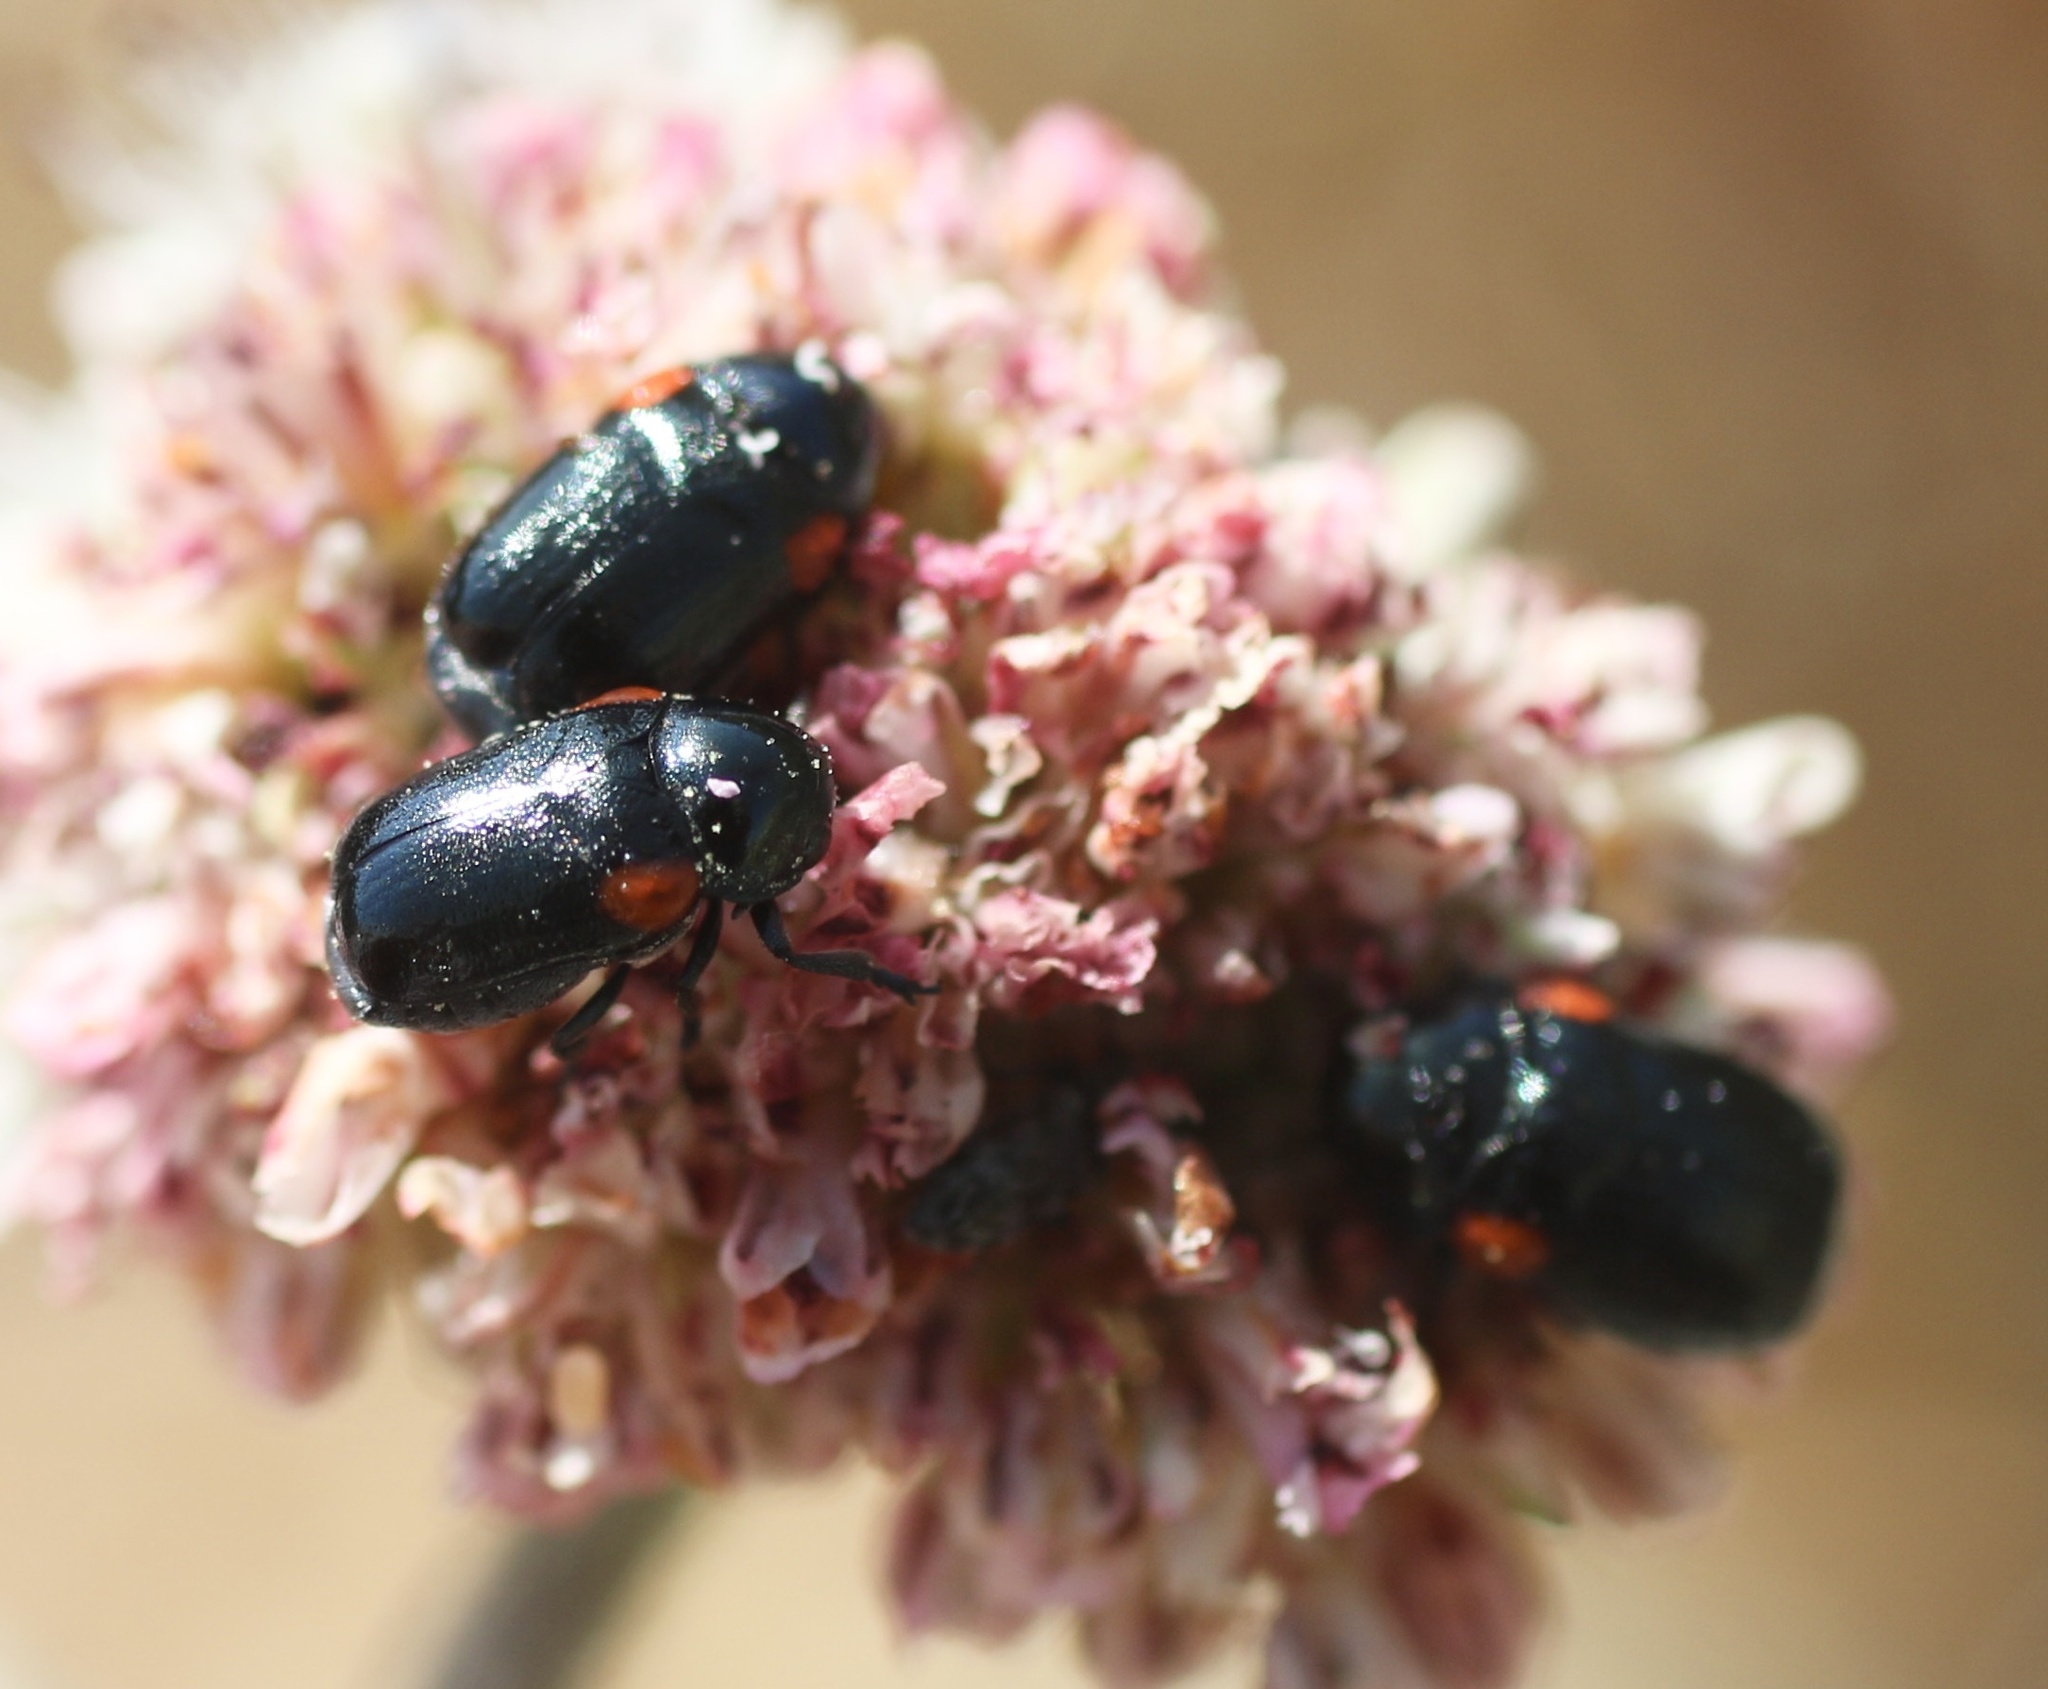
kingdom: Animalia
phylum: Arthropoda
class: Insecta
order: Coleoptera
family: Chrysomelidae
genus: Saxinis
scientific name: Saxinis saucia
